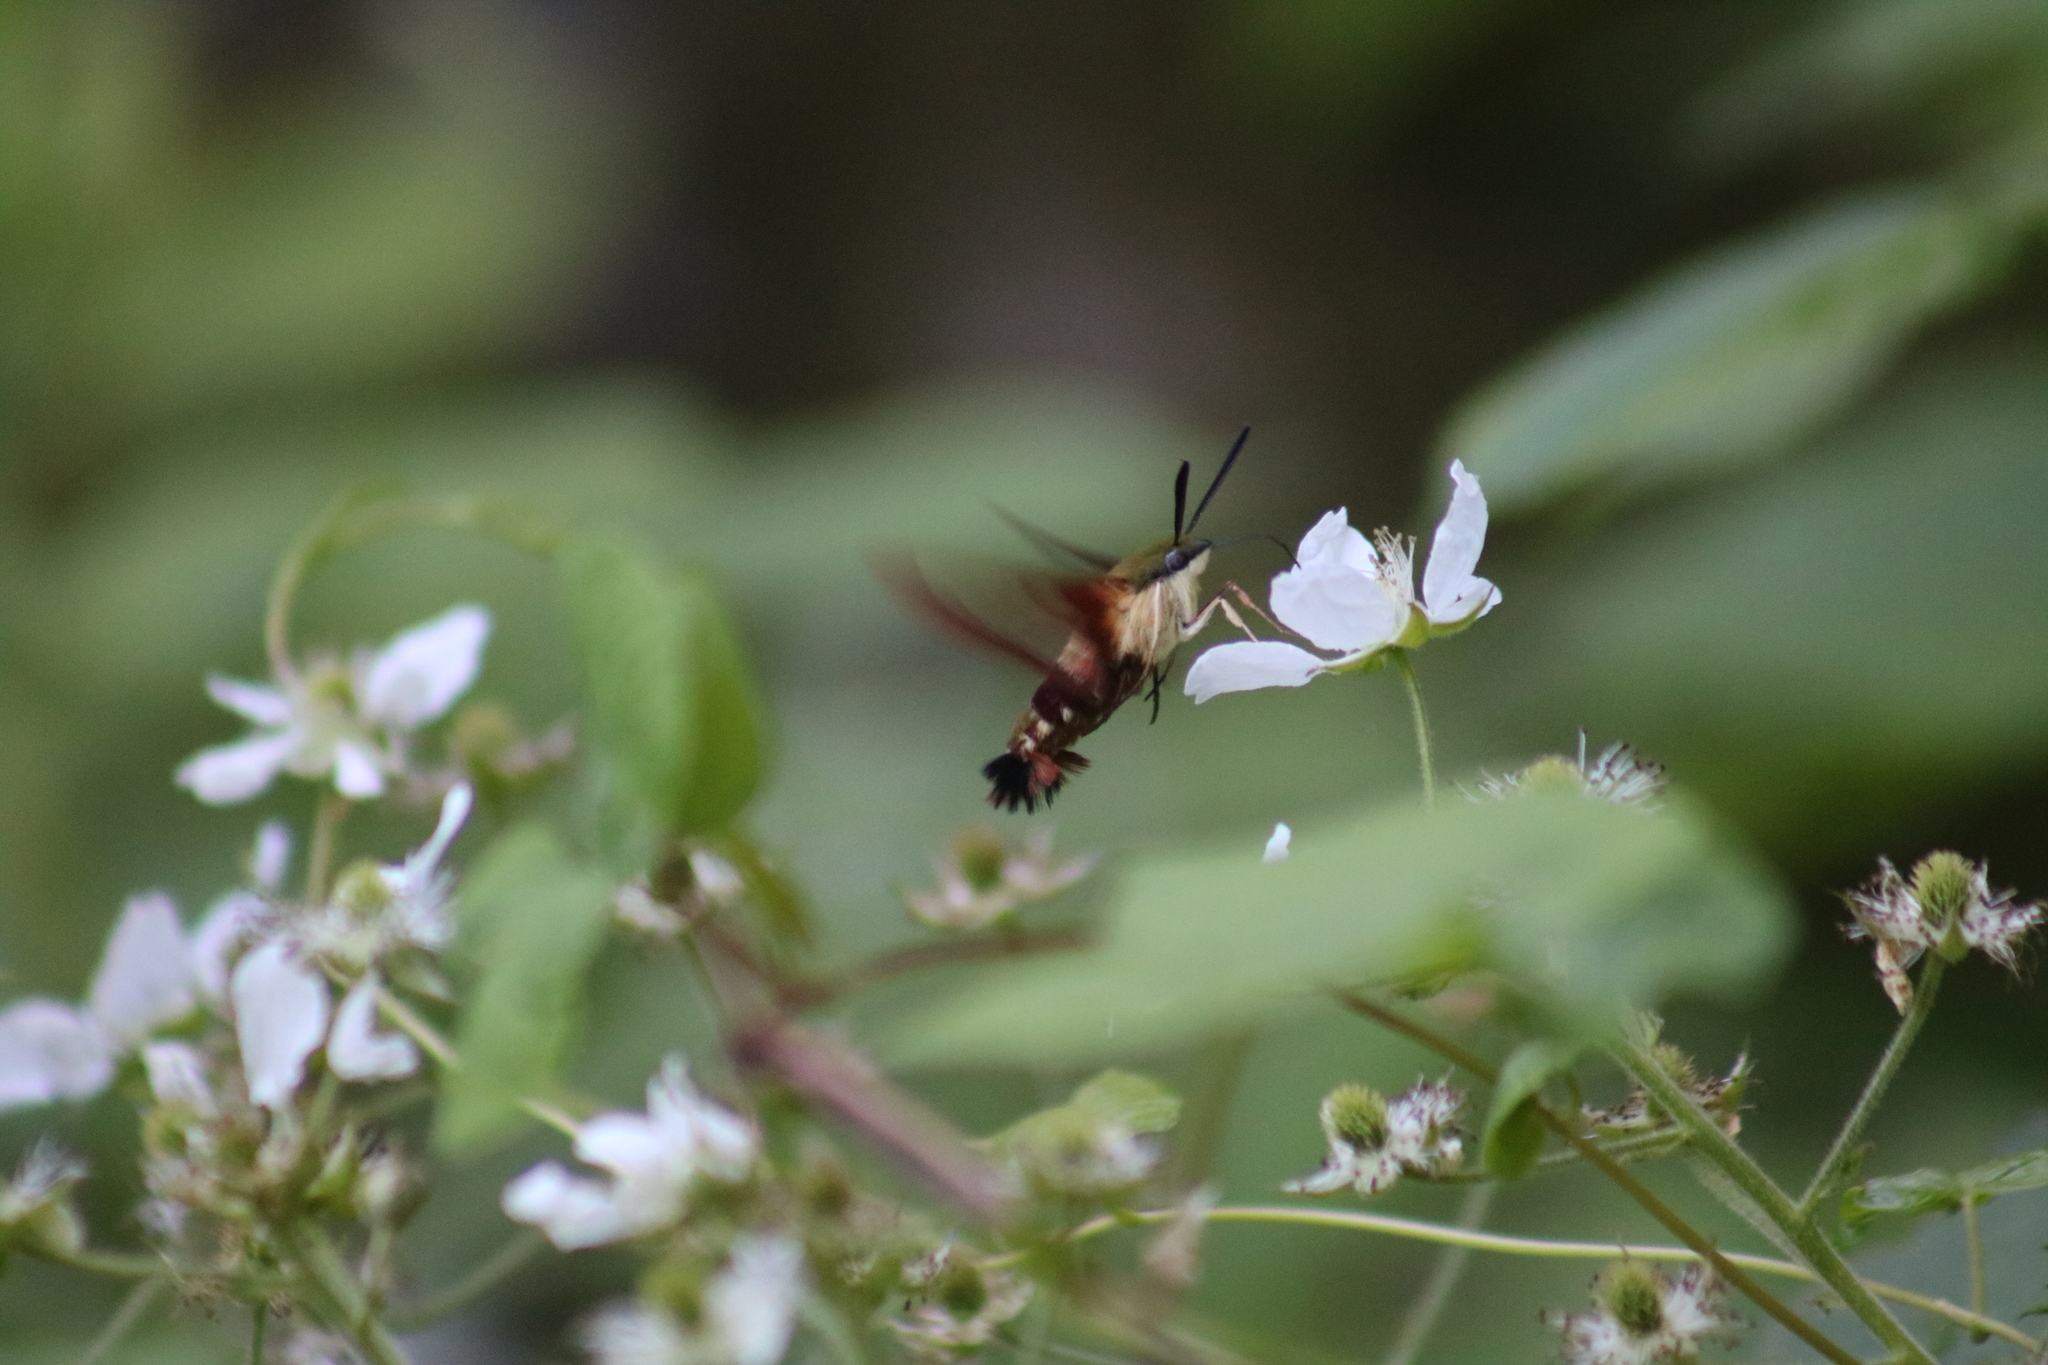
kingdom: Animalia
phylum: Arthropoda
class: Insecta
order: Lepidoptera
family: Sphingidae
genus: Hemaris
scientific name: Hemaris thysbe
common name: Common clear-wing
